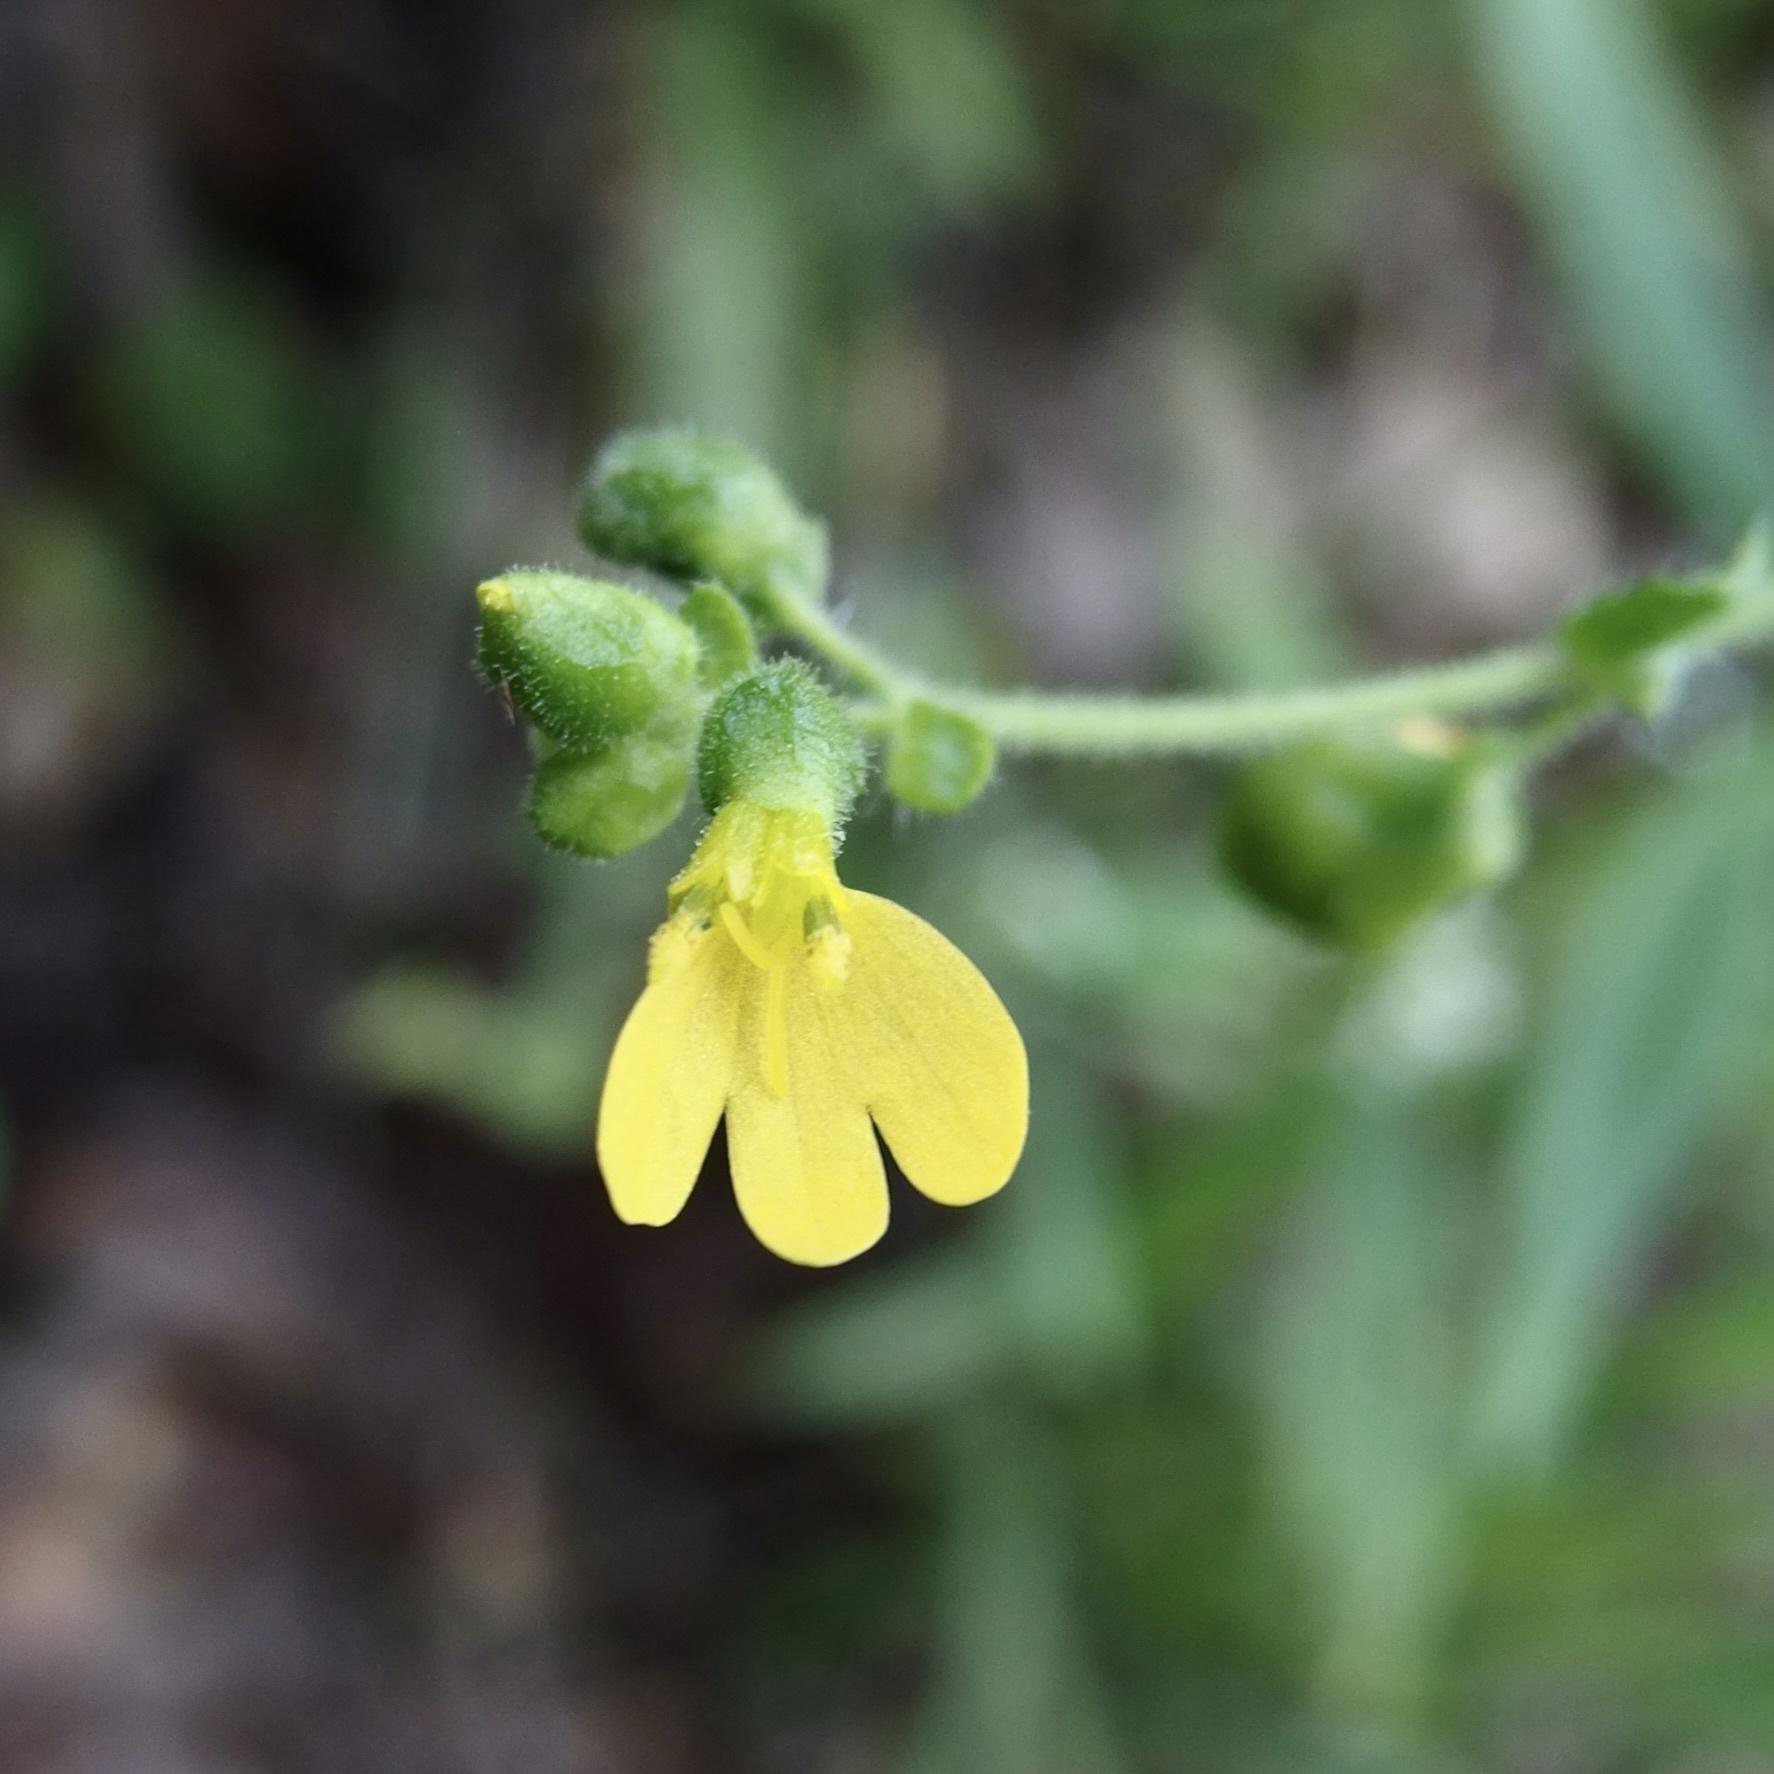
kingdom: Plantae
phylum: Tracheophyta
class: Magnoliopsida
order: Asterales
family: Asteraceae
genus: Milleria
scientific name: Milleria quinqueflora
